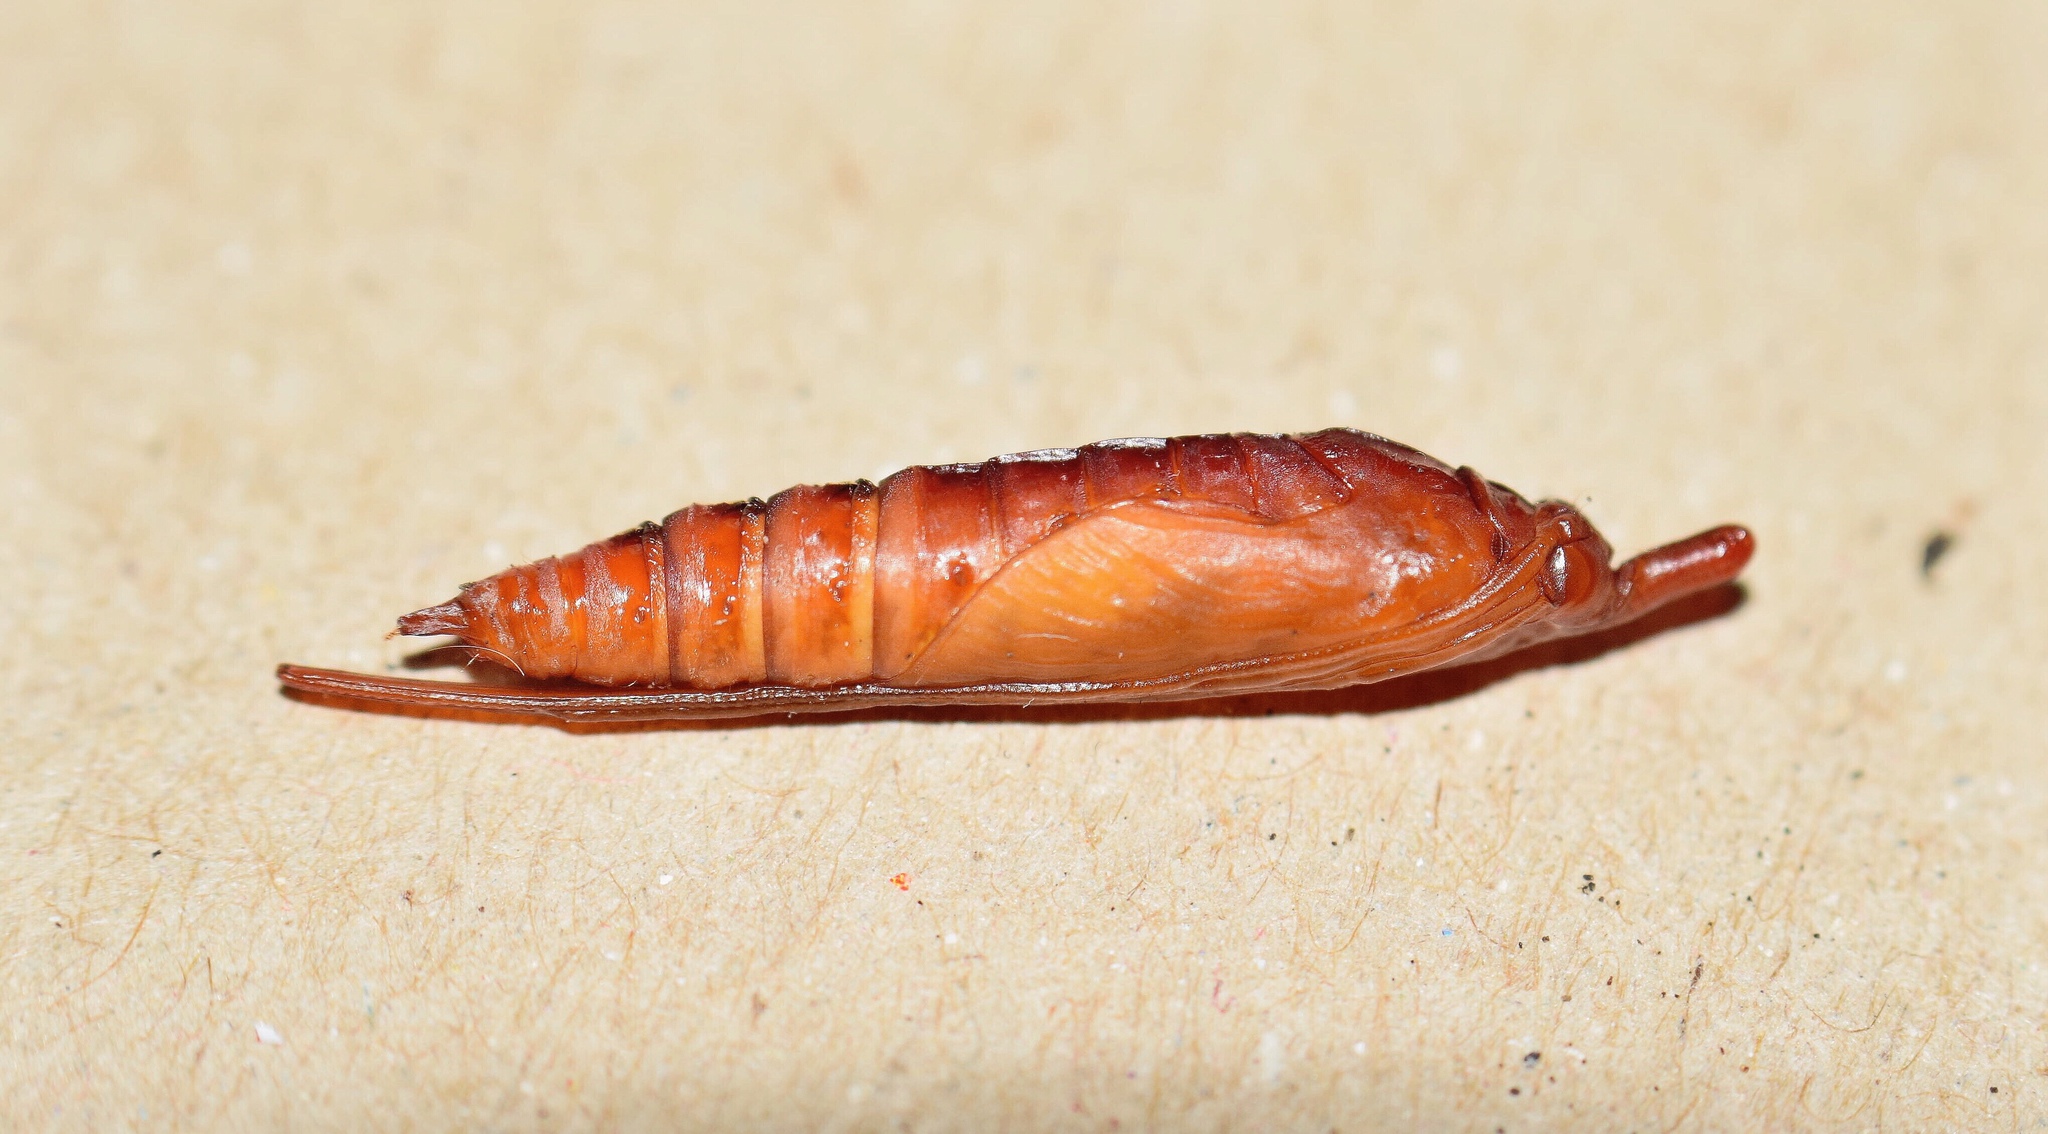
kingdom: Animalia
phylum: Arthropoda
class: Insecta
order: Lepidoptera
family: Crambidae
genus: Filodes
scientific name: Filodes costivitralis
